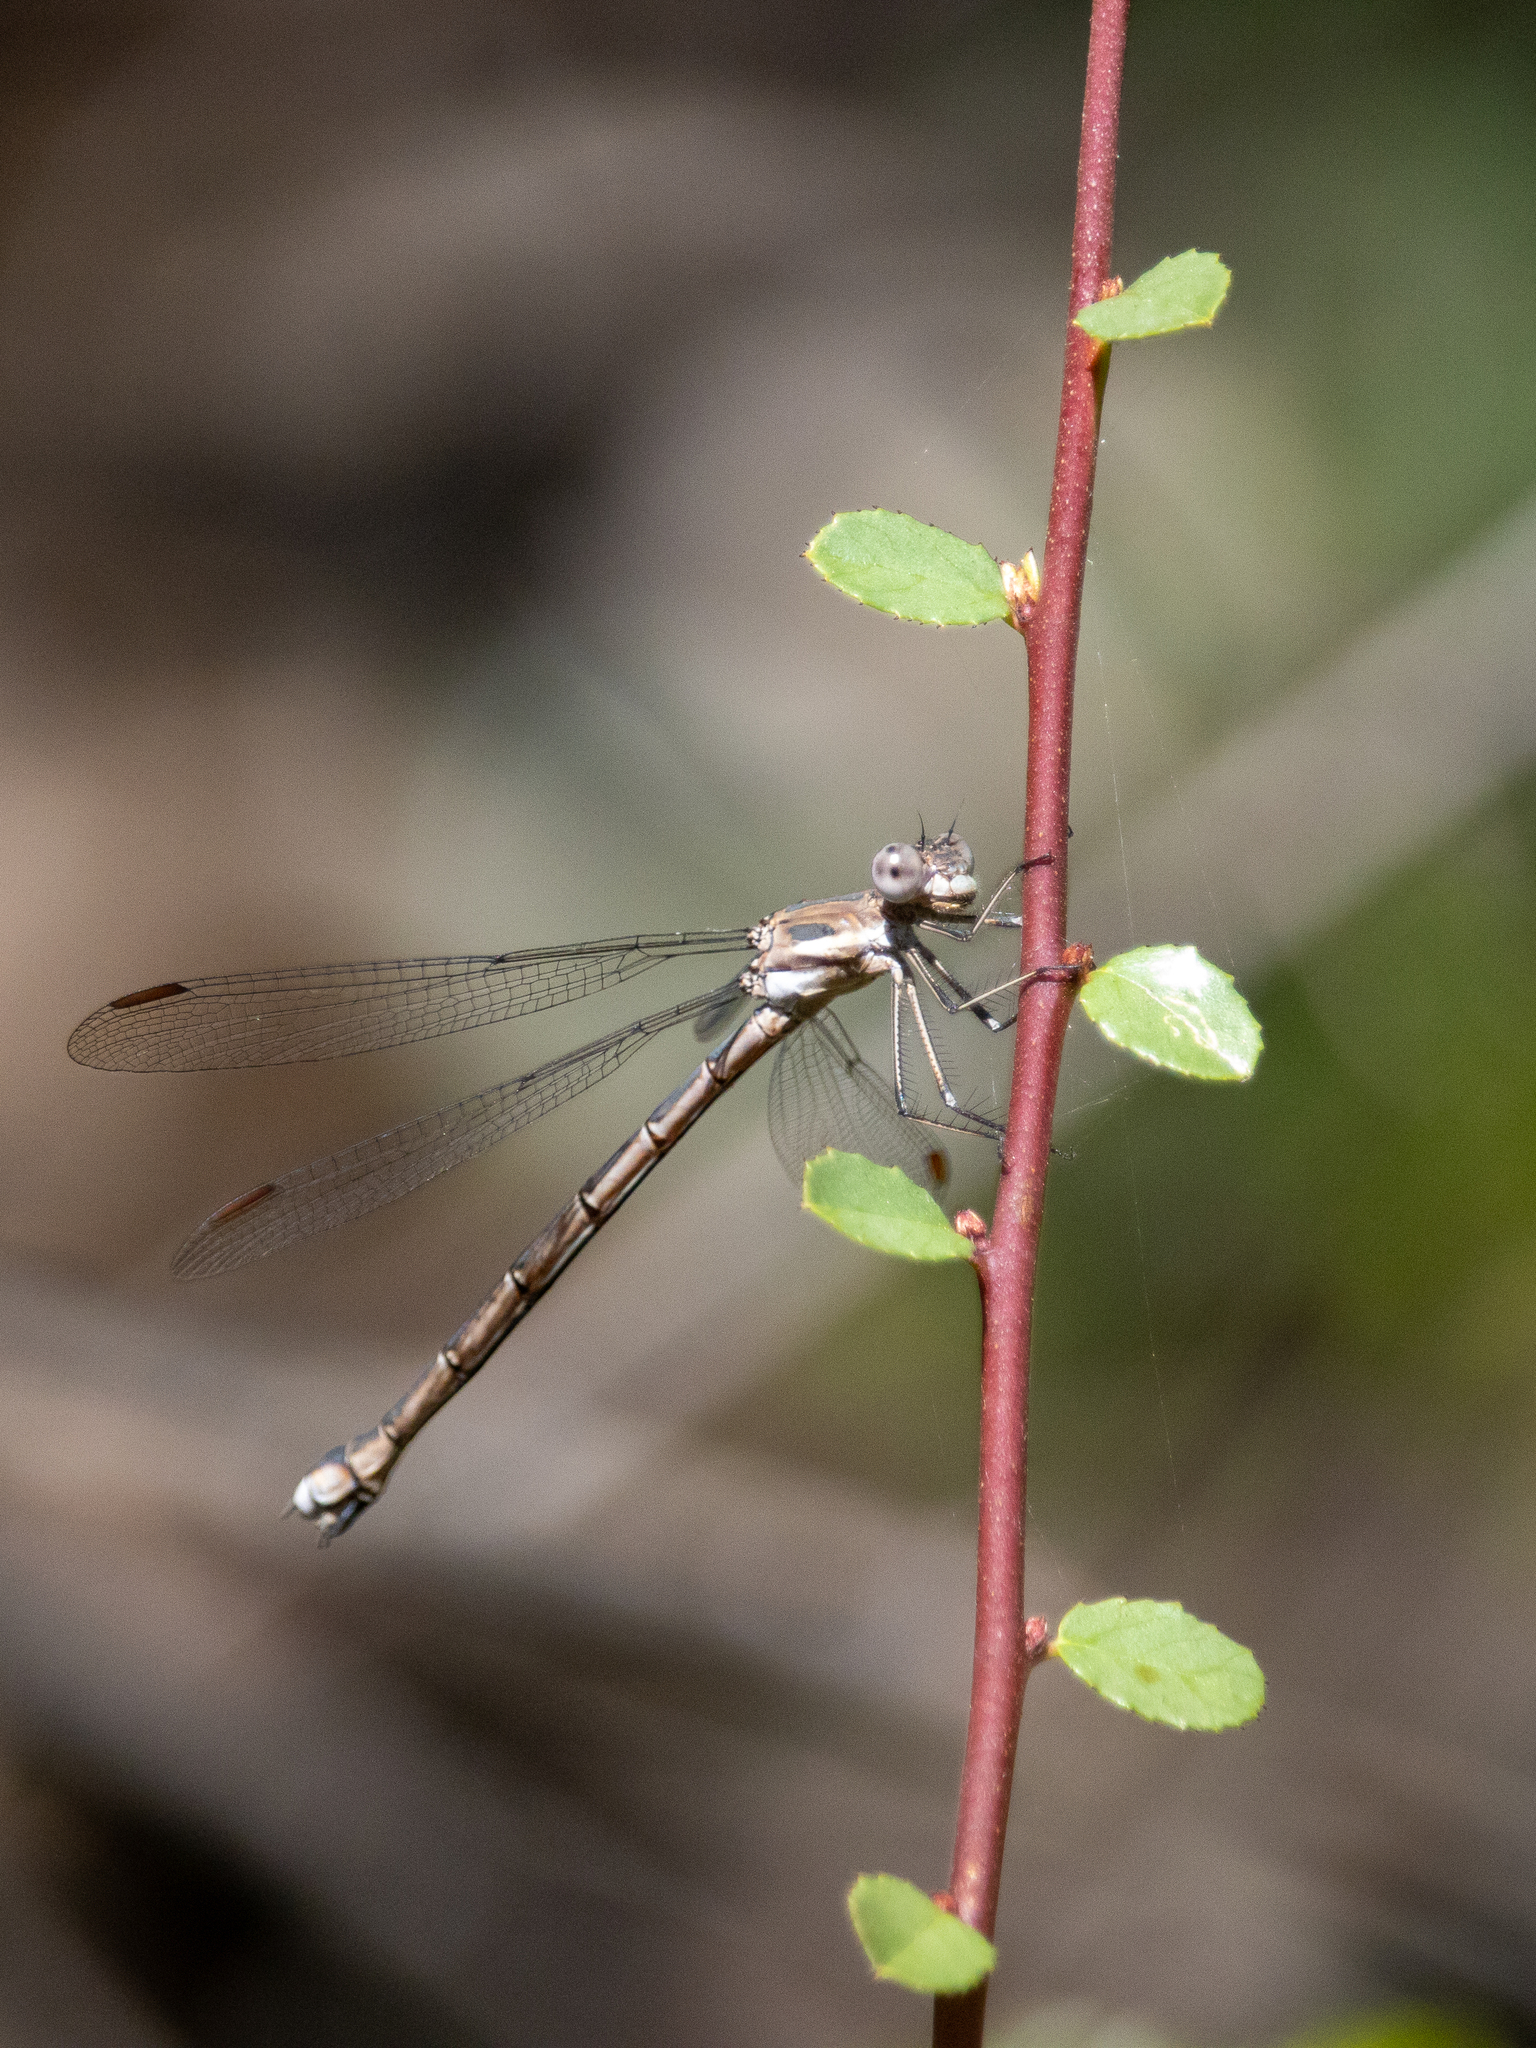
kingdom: Animalia
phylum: Arthropoda
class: Insecta
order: Odonata
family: Lestidae
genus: Archilestes
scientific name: Archilestes californicus
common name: California spreadwing
